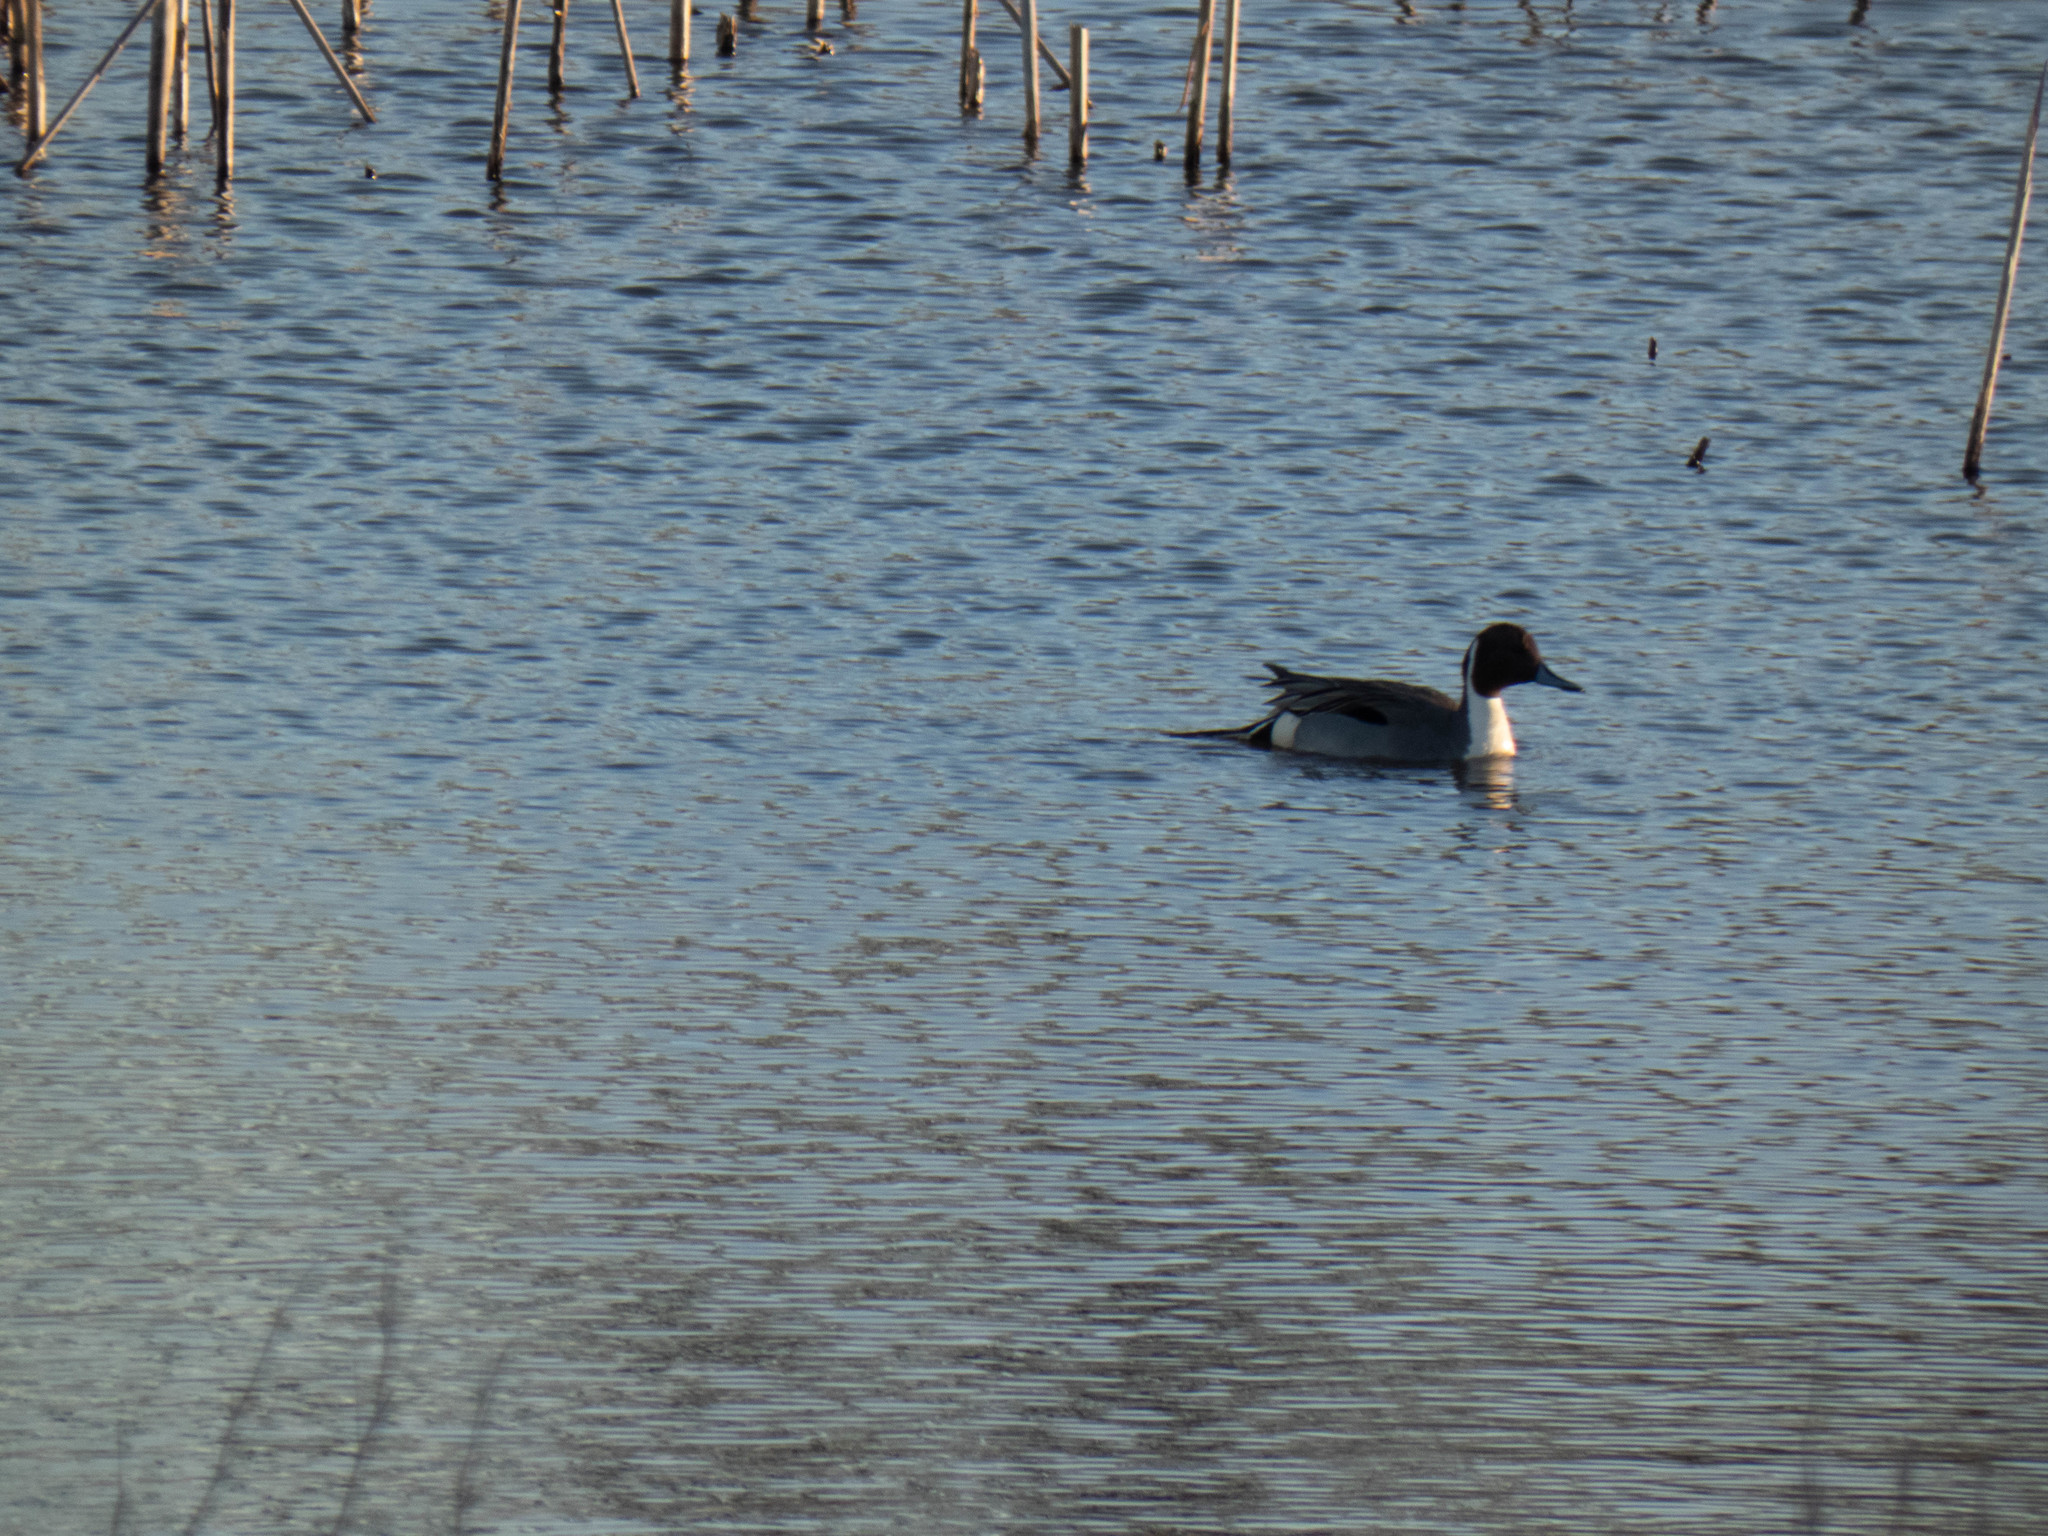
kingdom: Animalia
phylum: Chordata
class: Aves
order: Anseriformes
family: Anatidae
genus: Anas
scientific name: Anas acuta
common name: Northern pintail
